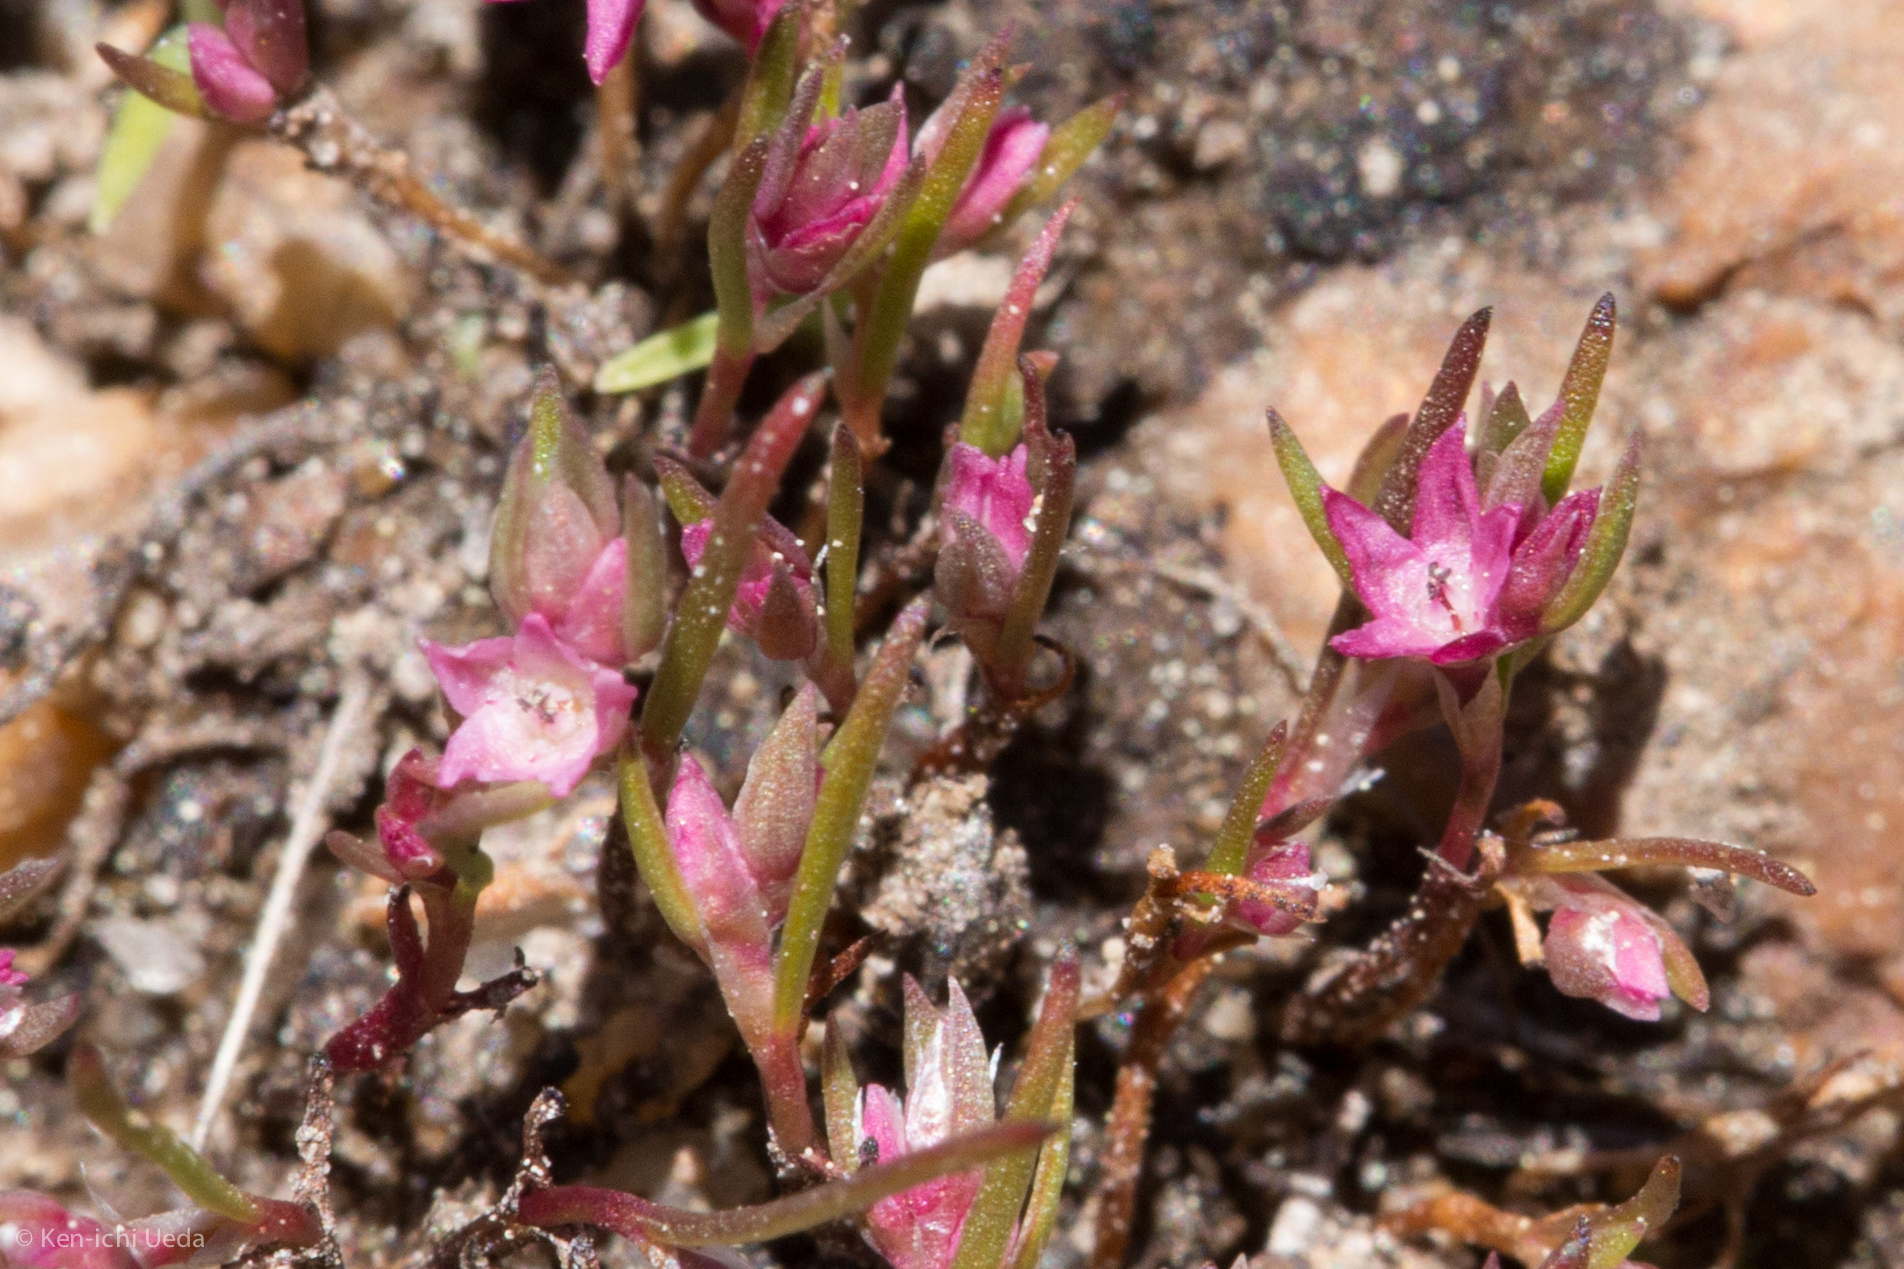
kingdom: Plantae
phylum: Tracheophyta
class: Magnoliopsida
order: Caryophyllales
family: Polygonaceae
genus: Polygonum
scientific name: Polygonum polygaloides
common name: Polygala knotweed
